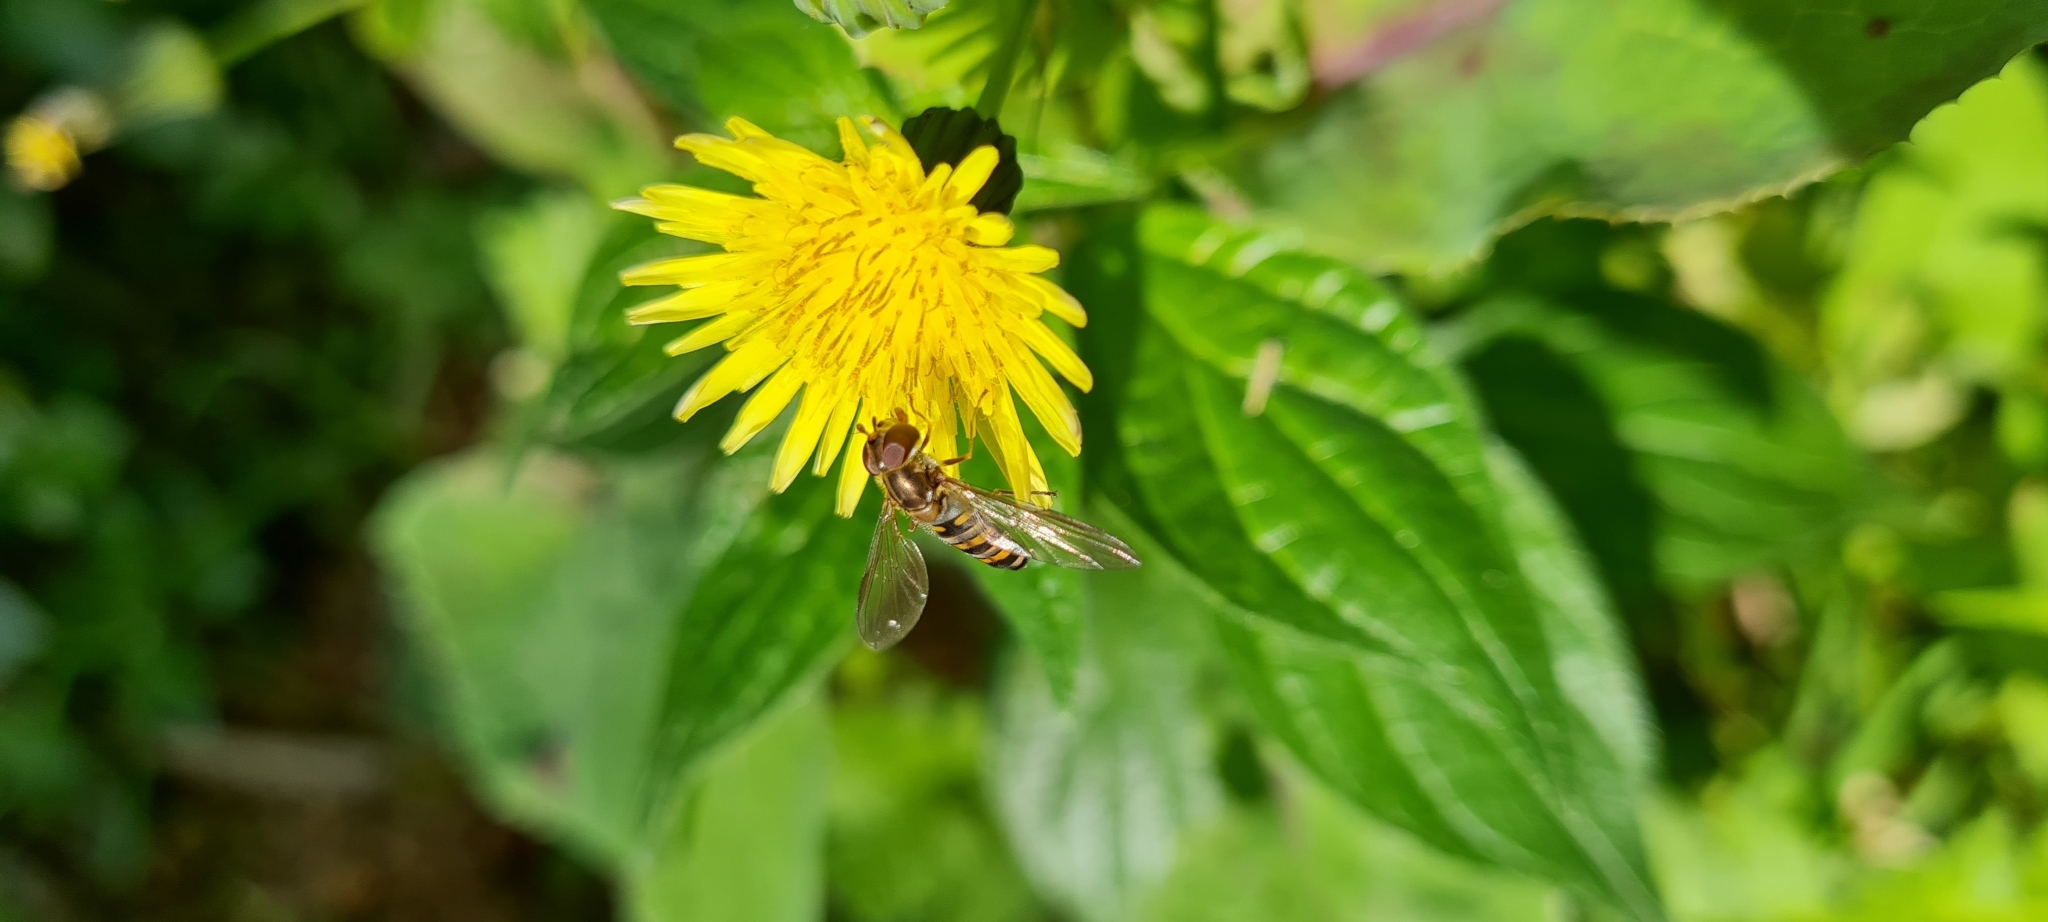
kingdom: Animalia
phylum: Arthropoda
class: Insecta
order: Diptera
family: Syrphidae
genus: Episyrphus
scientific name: Episyrphus balteatus
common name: Marmalade hoverfly
